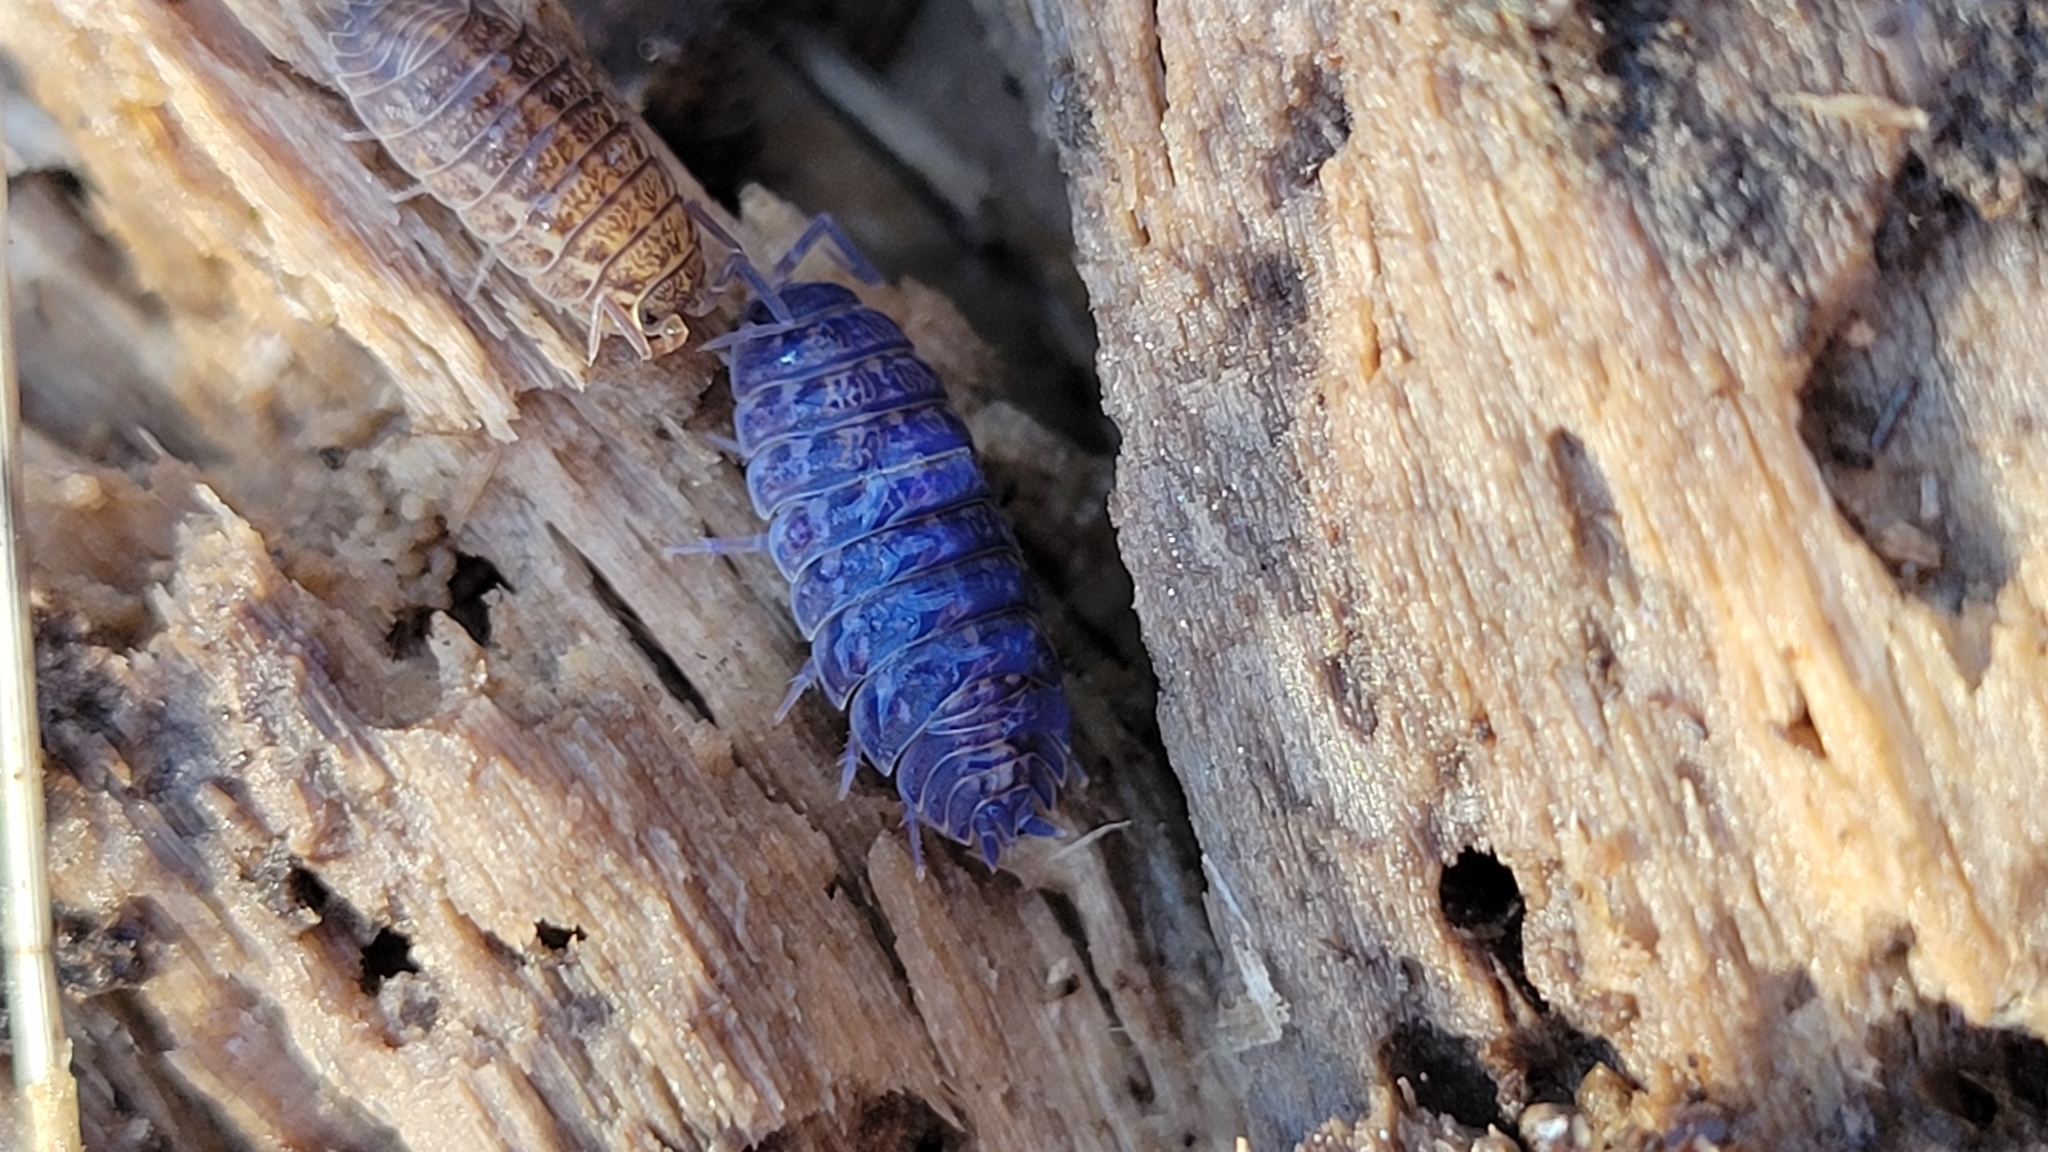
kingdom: Animalia
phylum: Arthropoda
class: Malacostraca
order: Isopoda
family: Trachelipodidae
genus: Trachelipus
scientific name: Trachelipus rathkii
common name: Isopod
